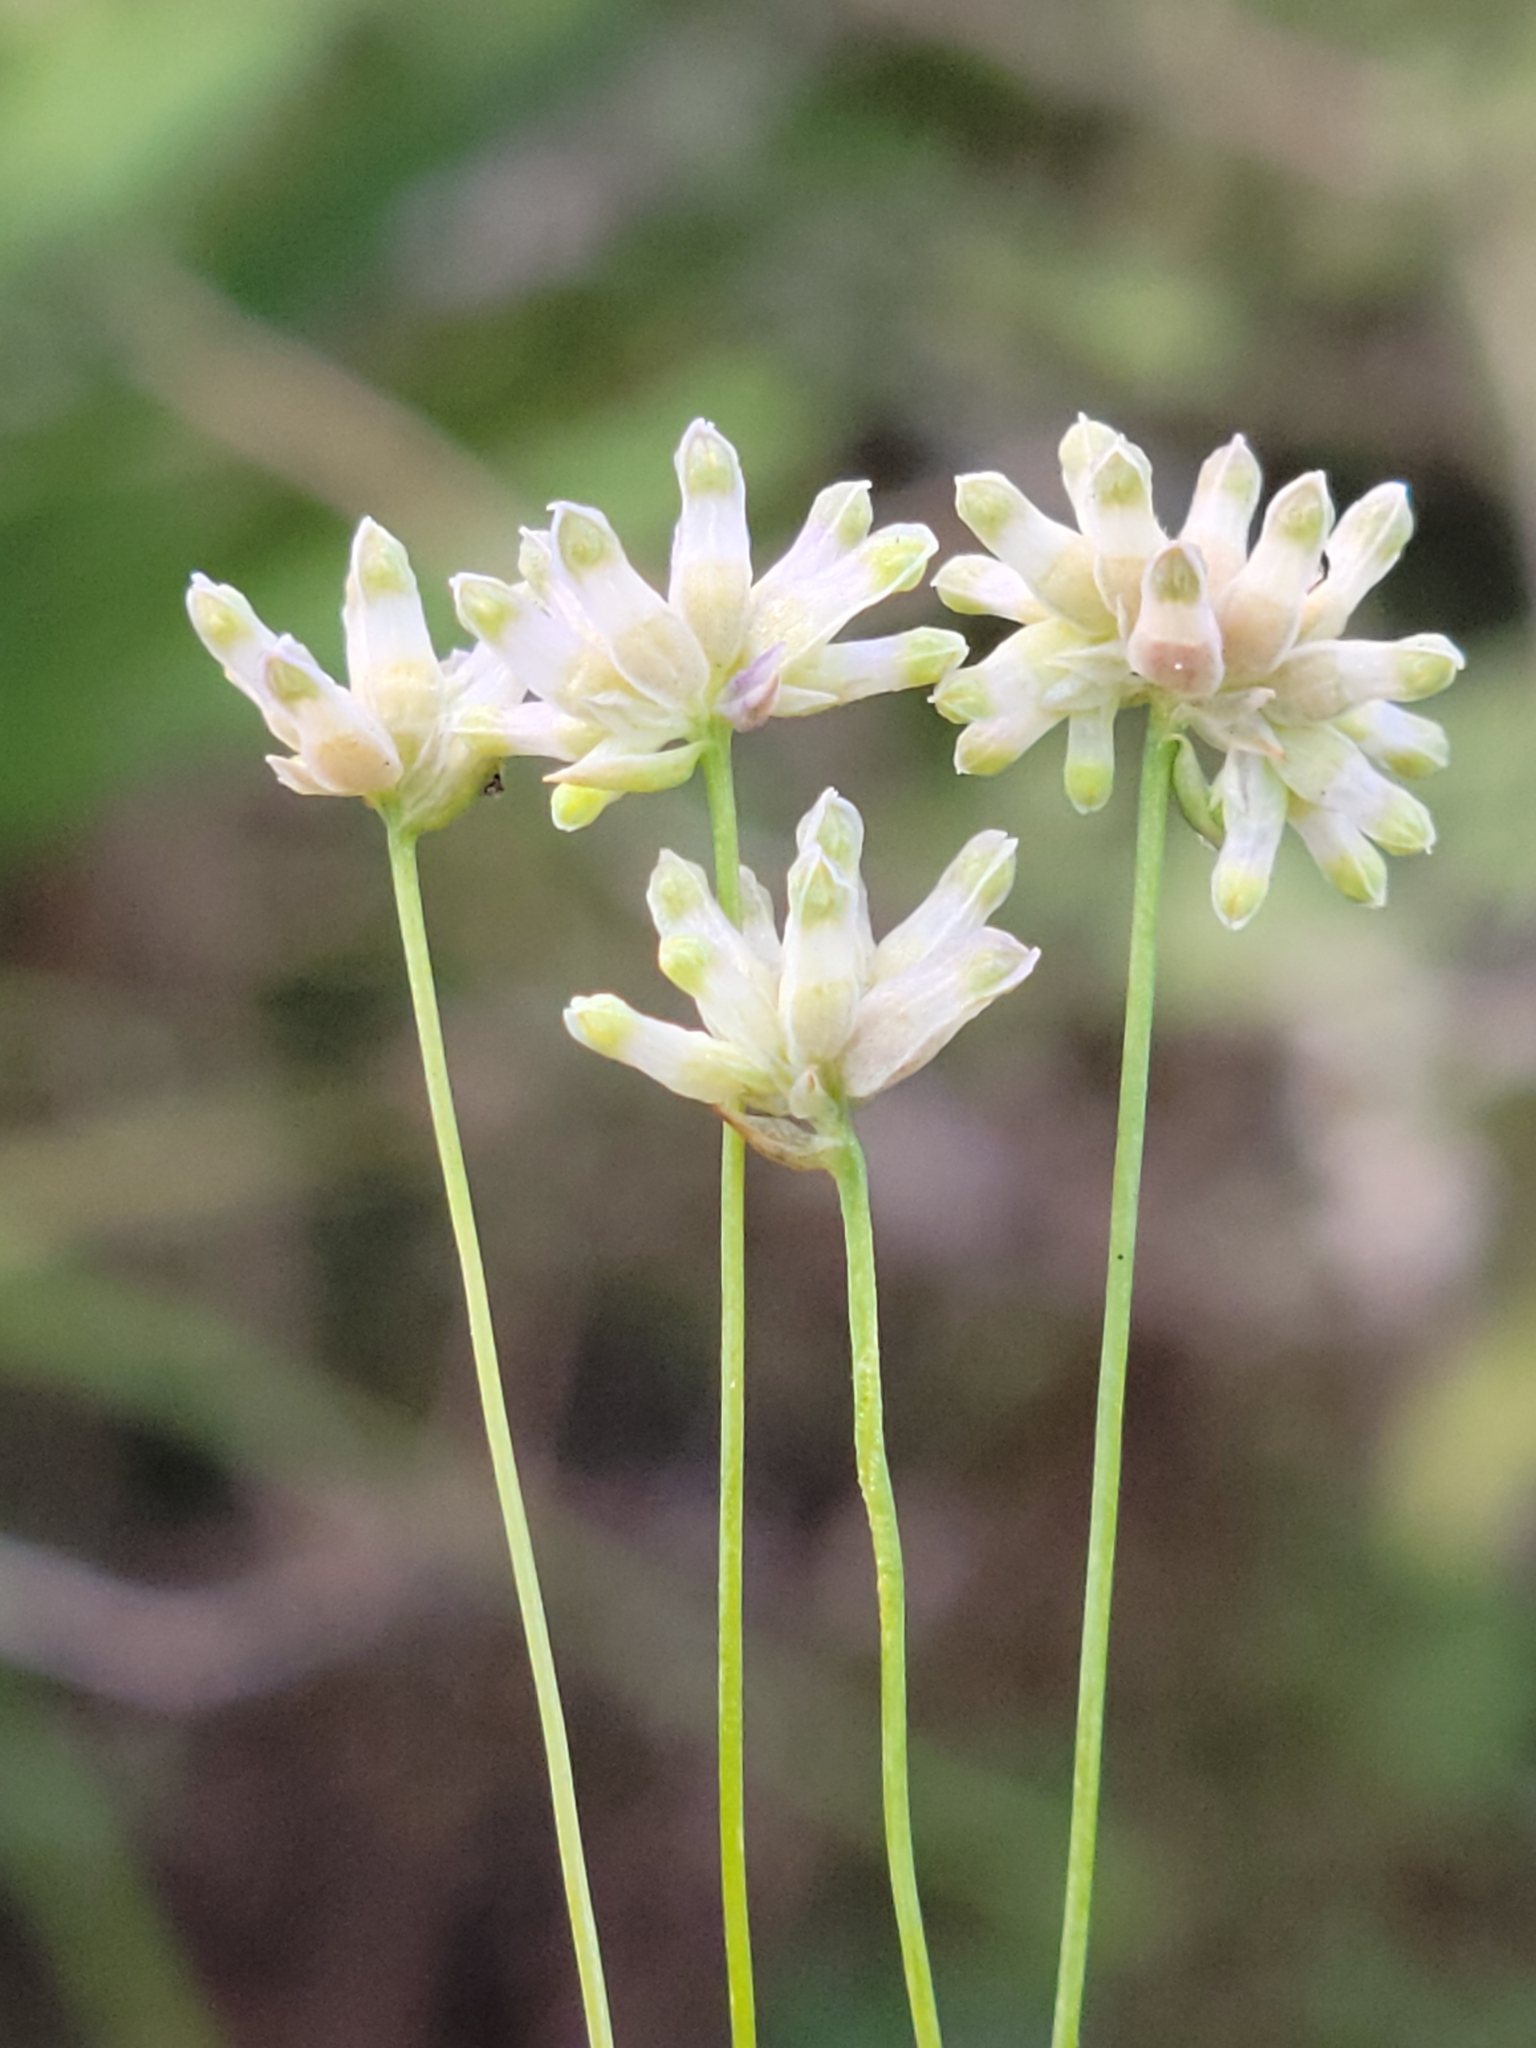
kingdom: Plantae
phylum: Tracheophyta
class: Liliopsida
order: Dioscoreales
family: Burmanniaceae
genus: Burmannia
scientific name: Burmannia capitata
